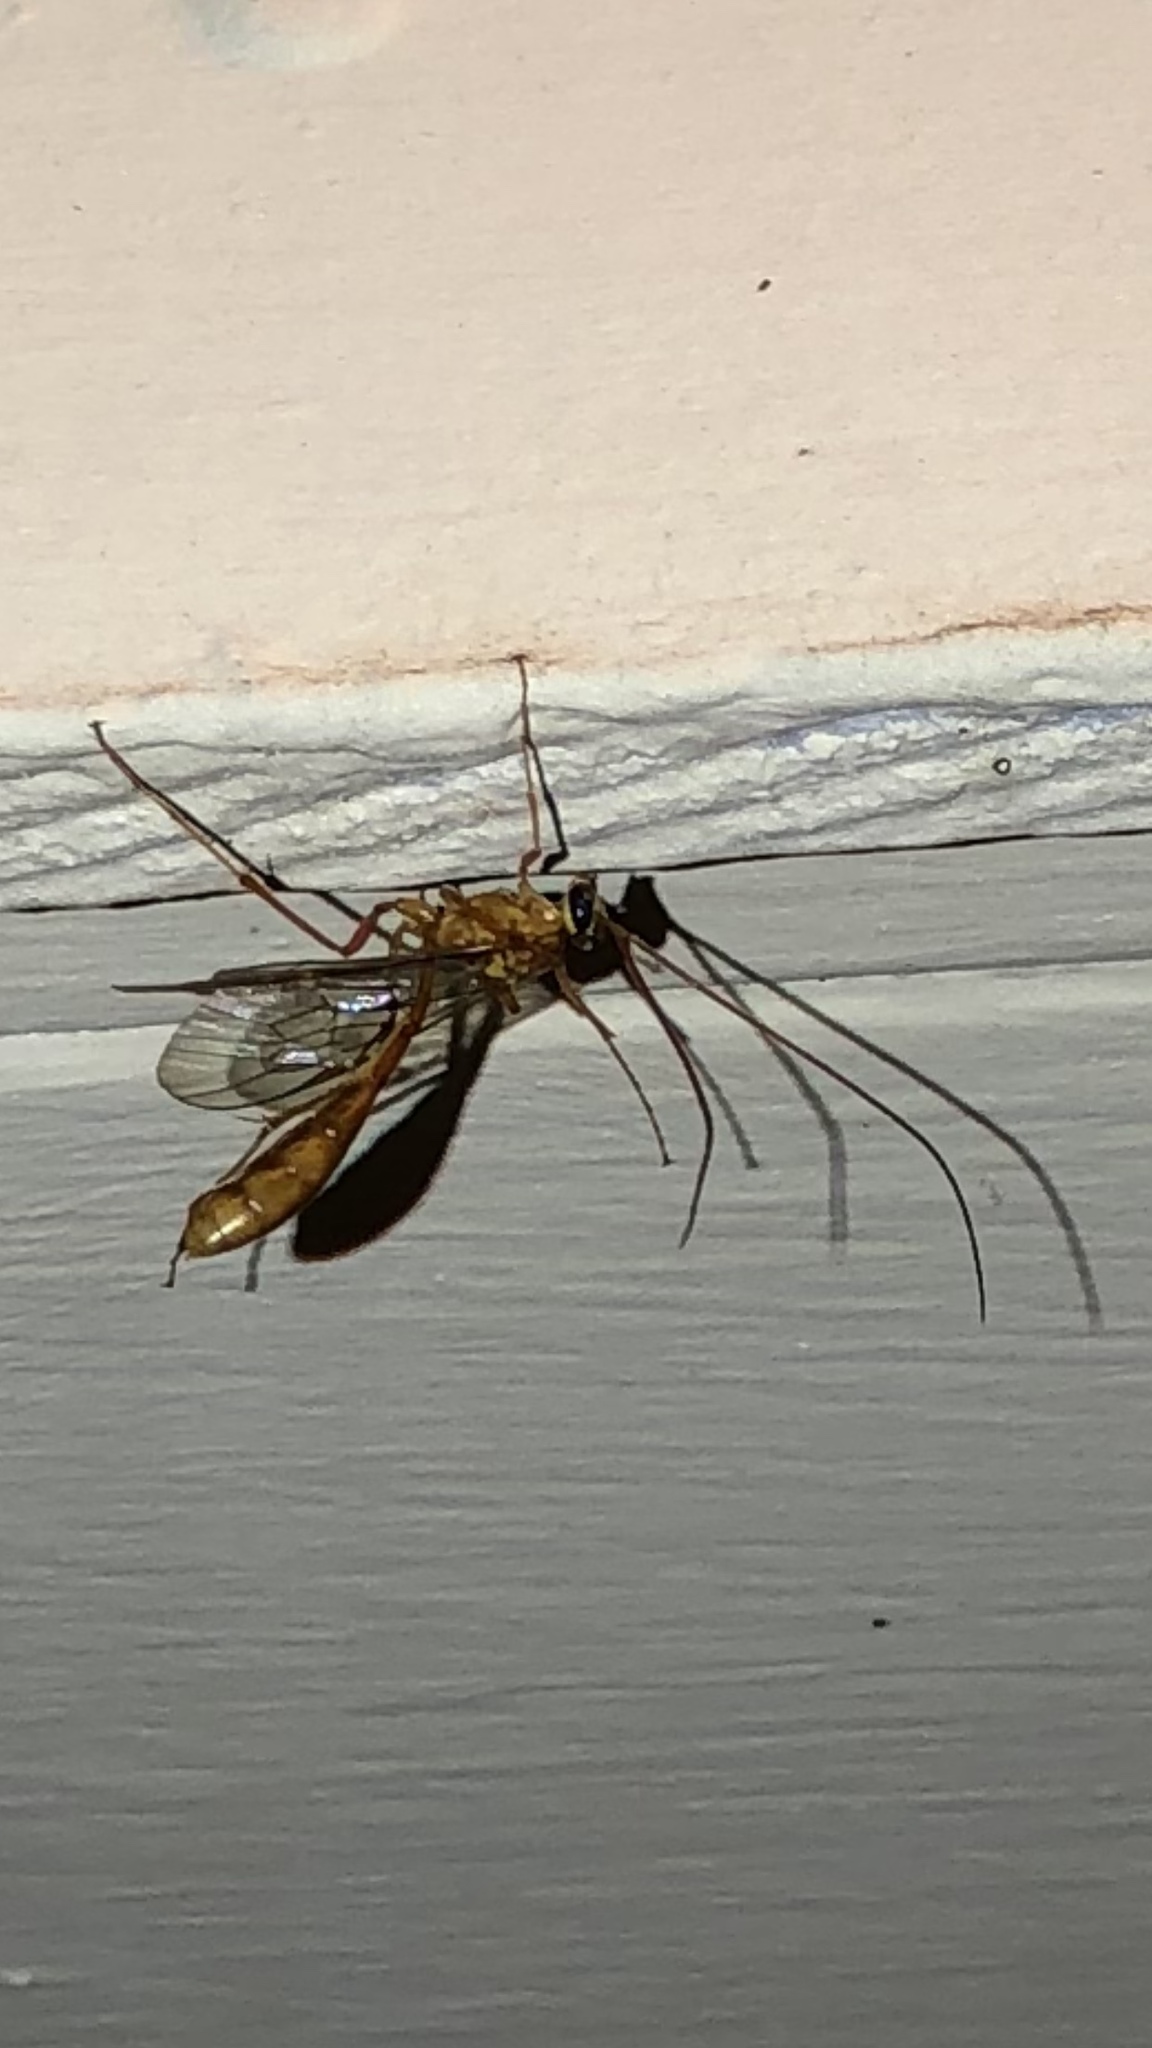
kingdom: Animalia
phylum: Arthropoda
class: Insecta
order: Hymenoptera
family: Ichneumonidae
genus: Ophion
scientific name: Ophion
